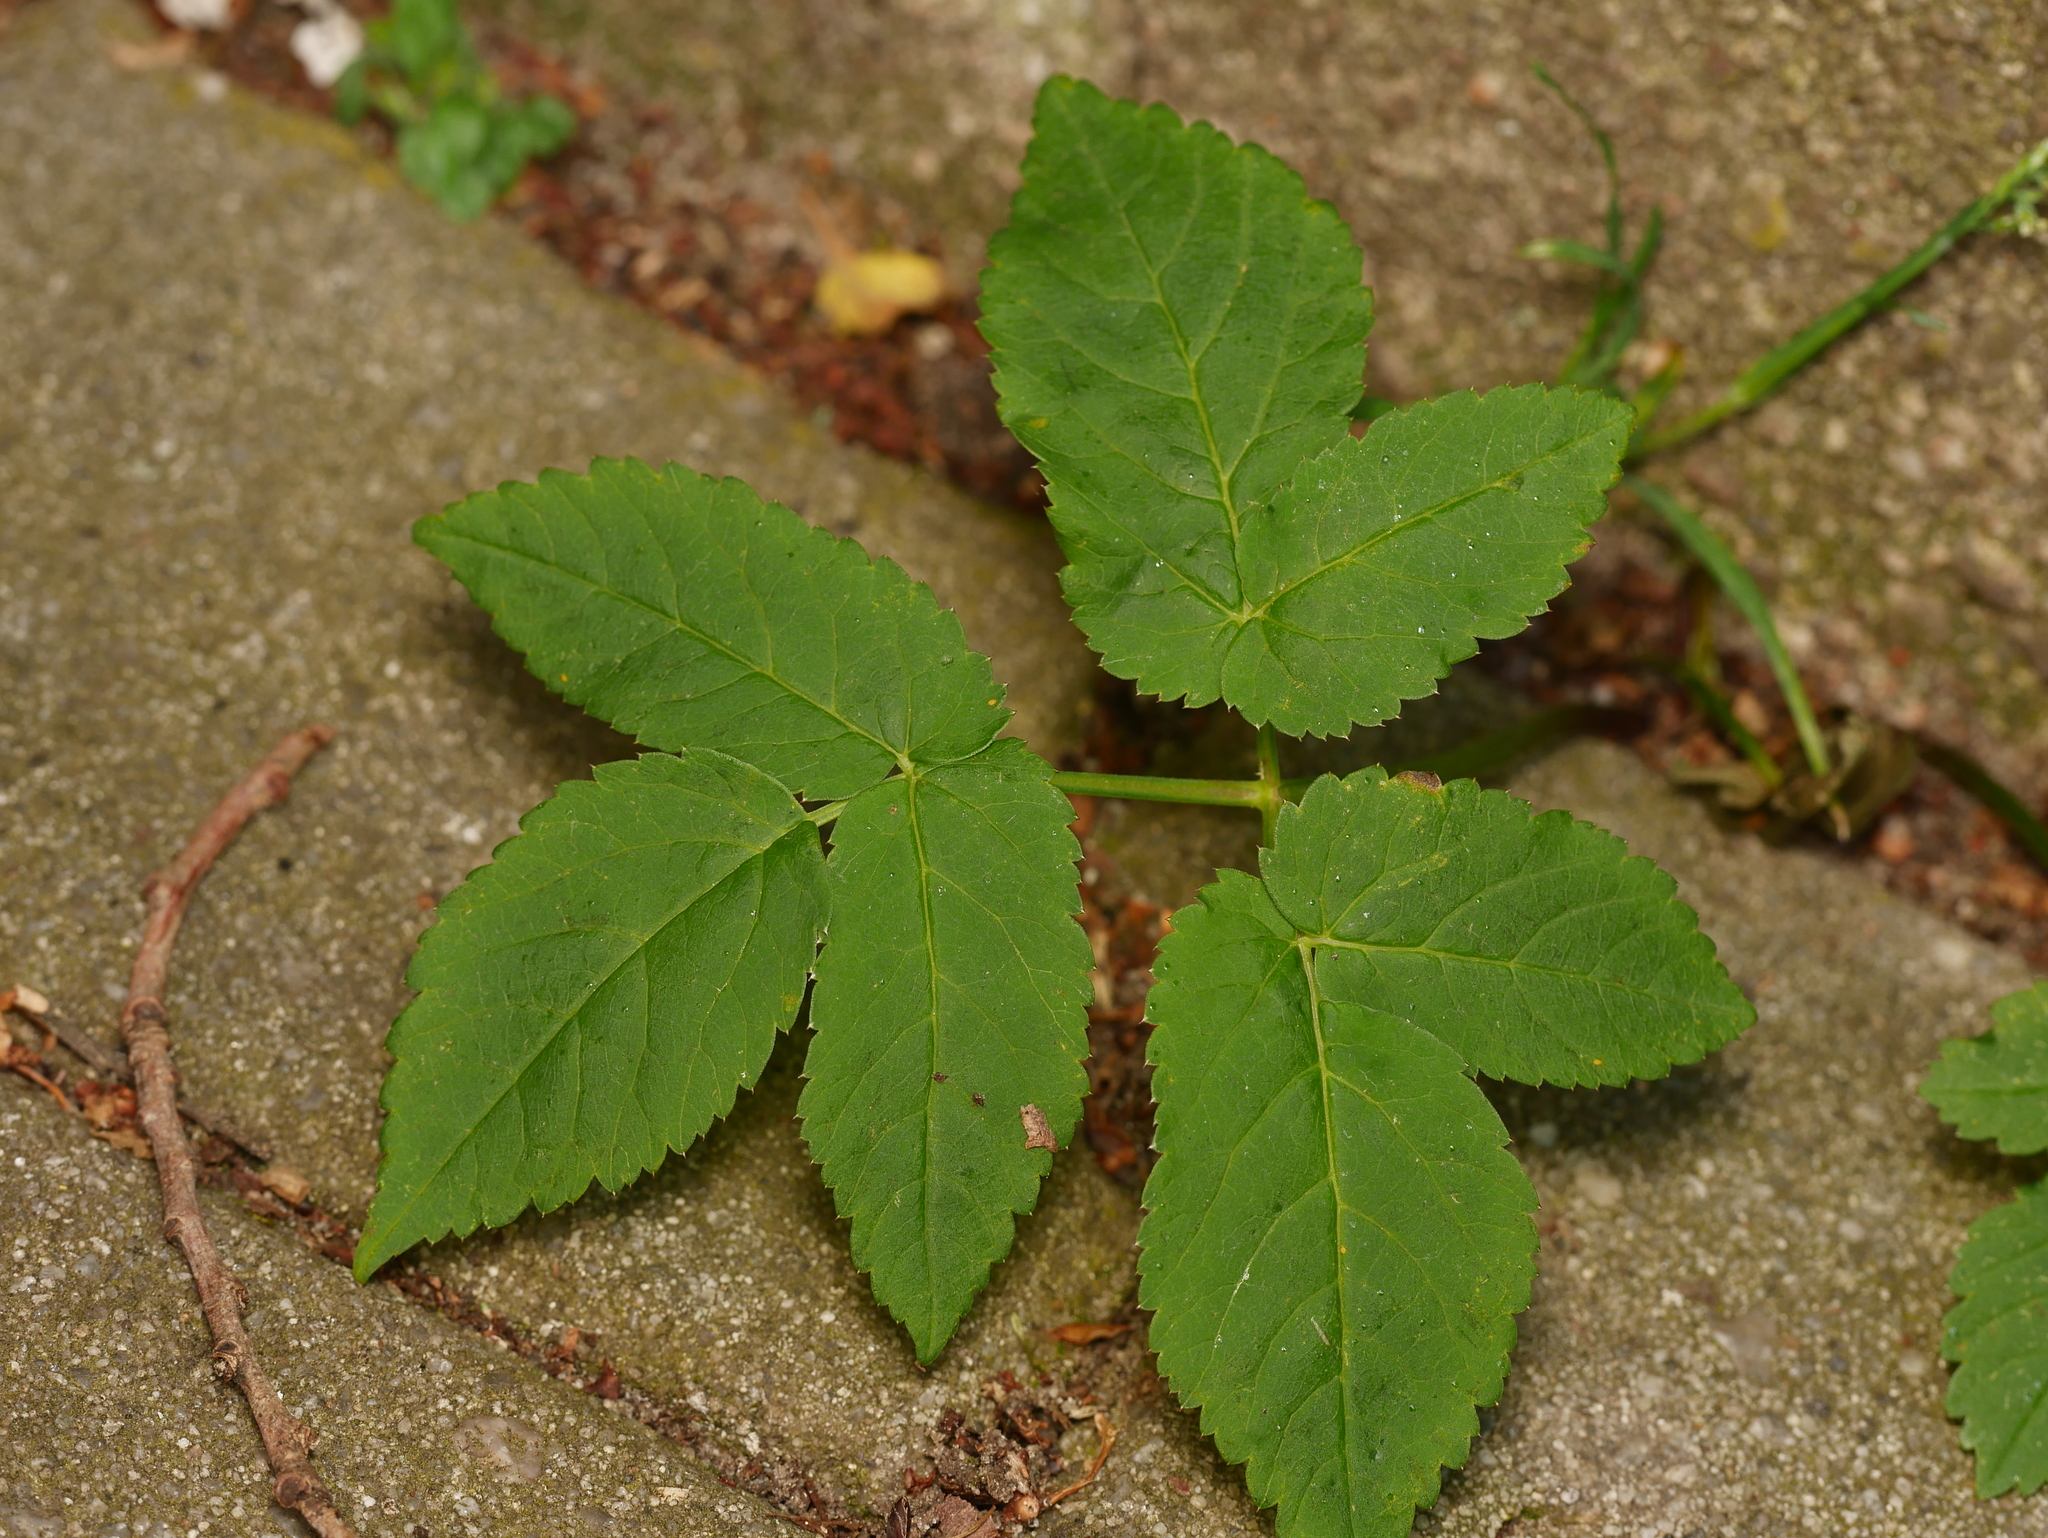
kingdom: Plantae
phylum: Tracheophyta
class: Magnoliopsida
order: Apiales
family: Apiaceae
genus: Aegopodium
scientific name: Aegopodium podagraria
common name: Ground-elder
